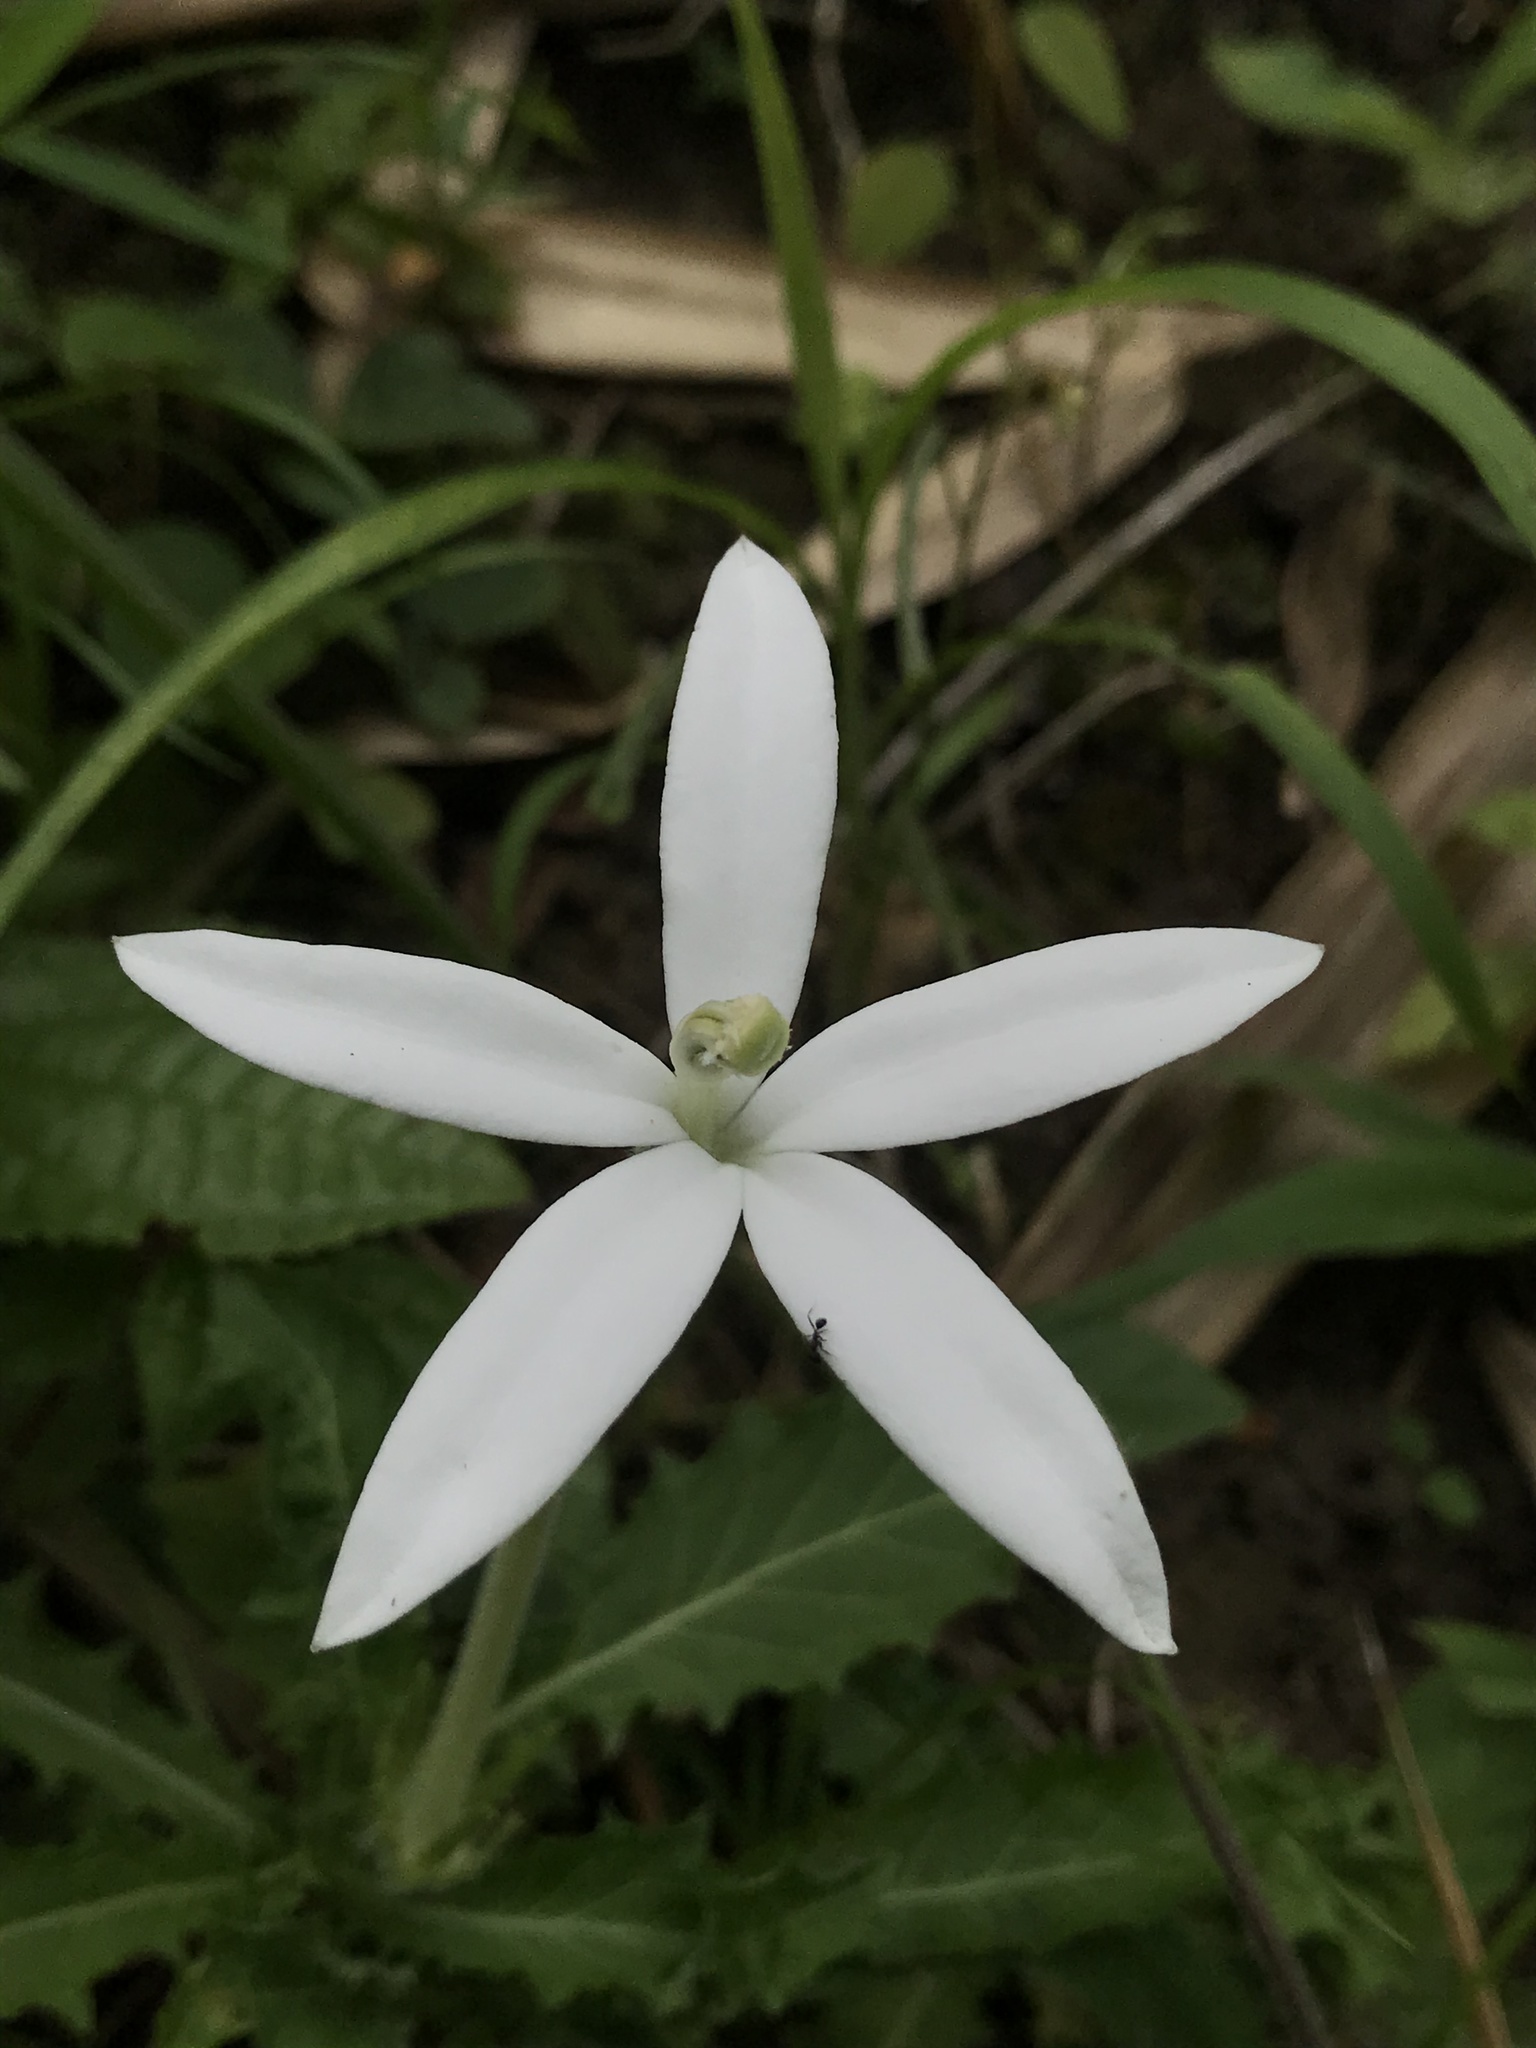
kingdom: Plantae
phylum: Tracheophyta
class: Magnoliopsida
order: Asterales
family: Campanulaceae
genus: Hippobroma
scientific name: Hippobroma longiflora
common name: Madamfate
